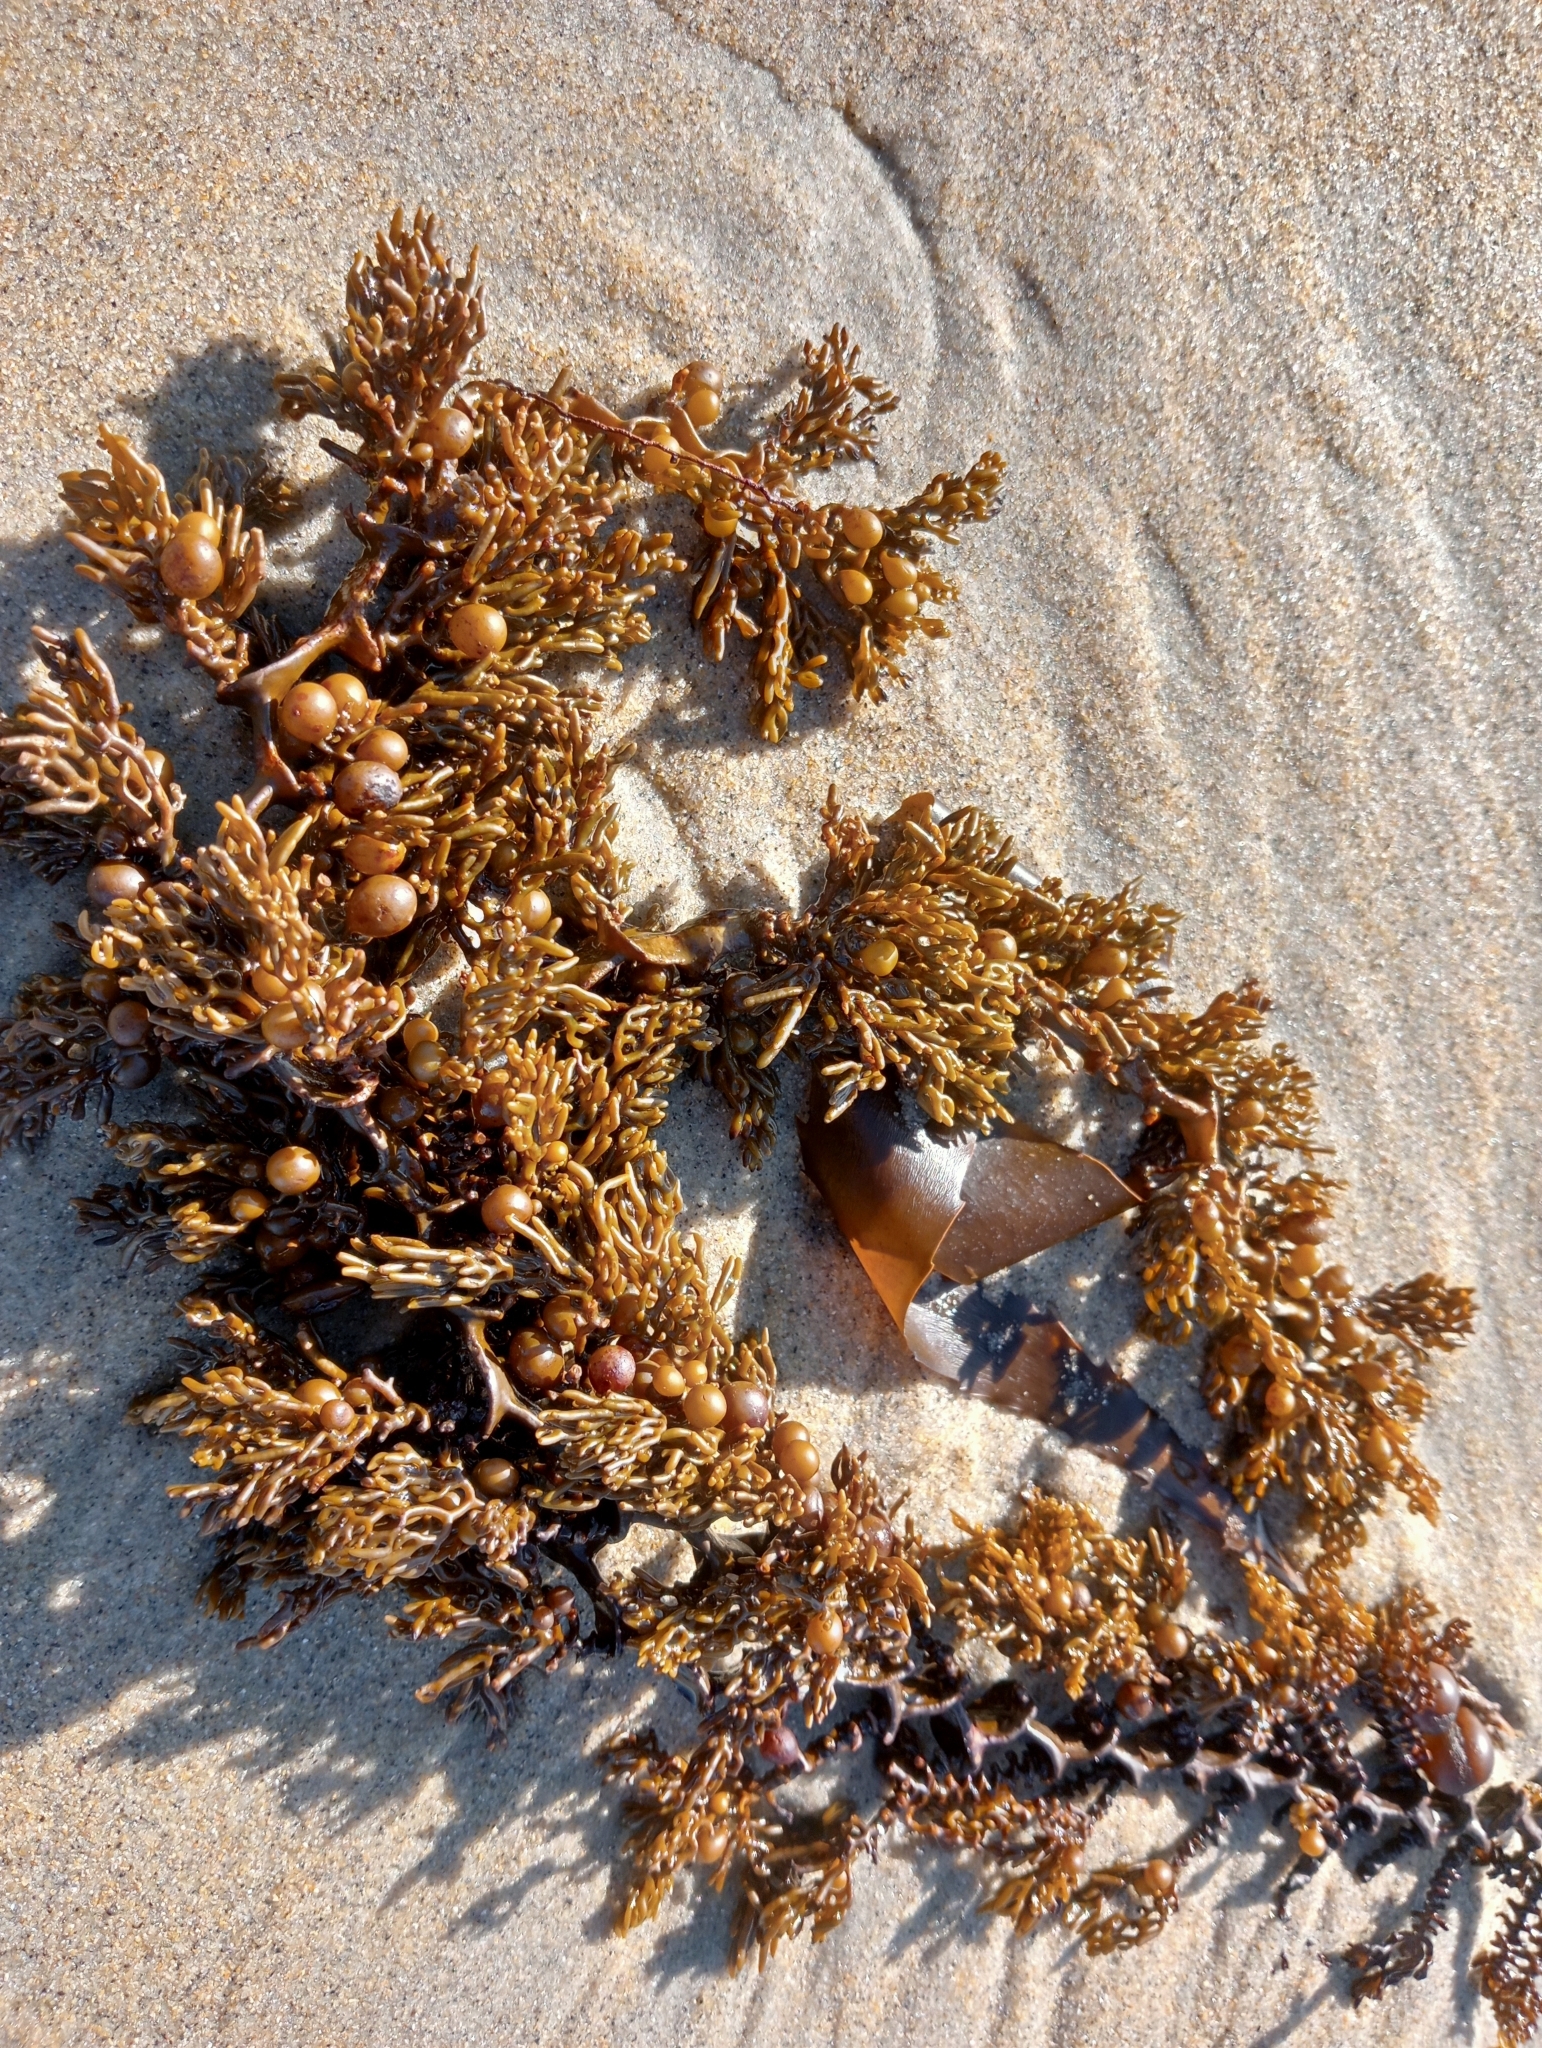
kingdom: Chromista
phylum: Ochrophyta
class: Phaeophyceae
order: Fucales
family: Sargassaceae
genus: Cystophora
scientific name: Cystophora scalaris
